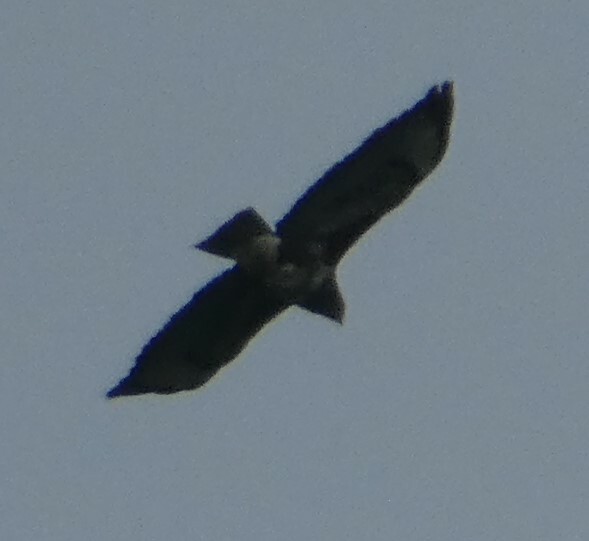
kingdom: Animalia
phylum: Chordata
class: Aves
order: Accipitriformes
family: Accipitridae
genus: Buteo
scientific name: Buteo buteo
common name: Common buzzard
